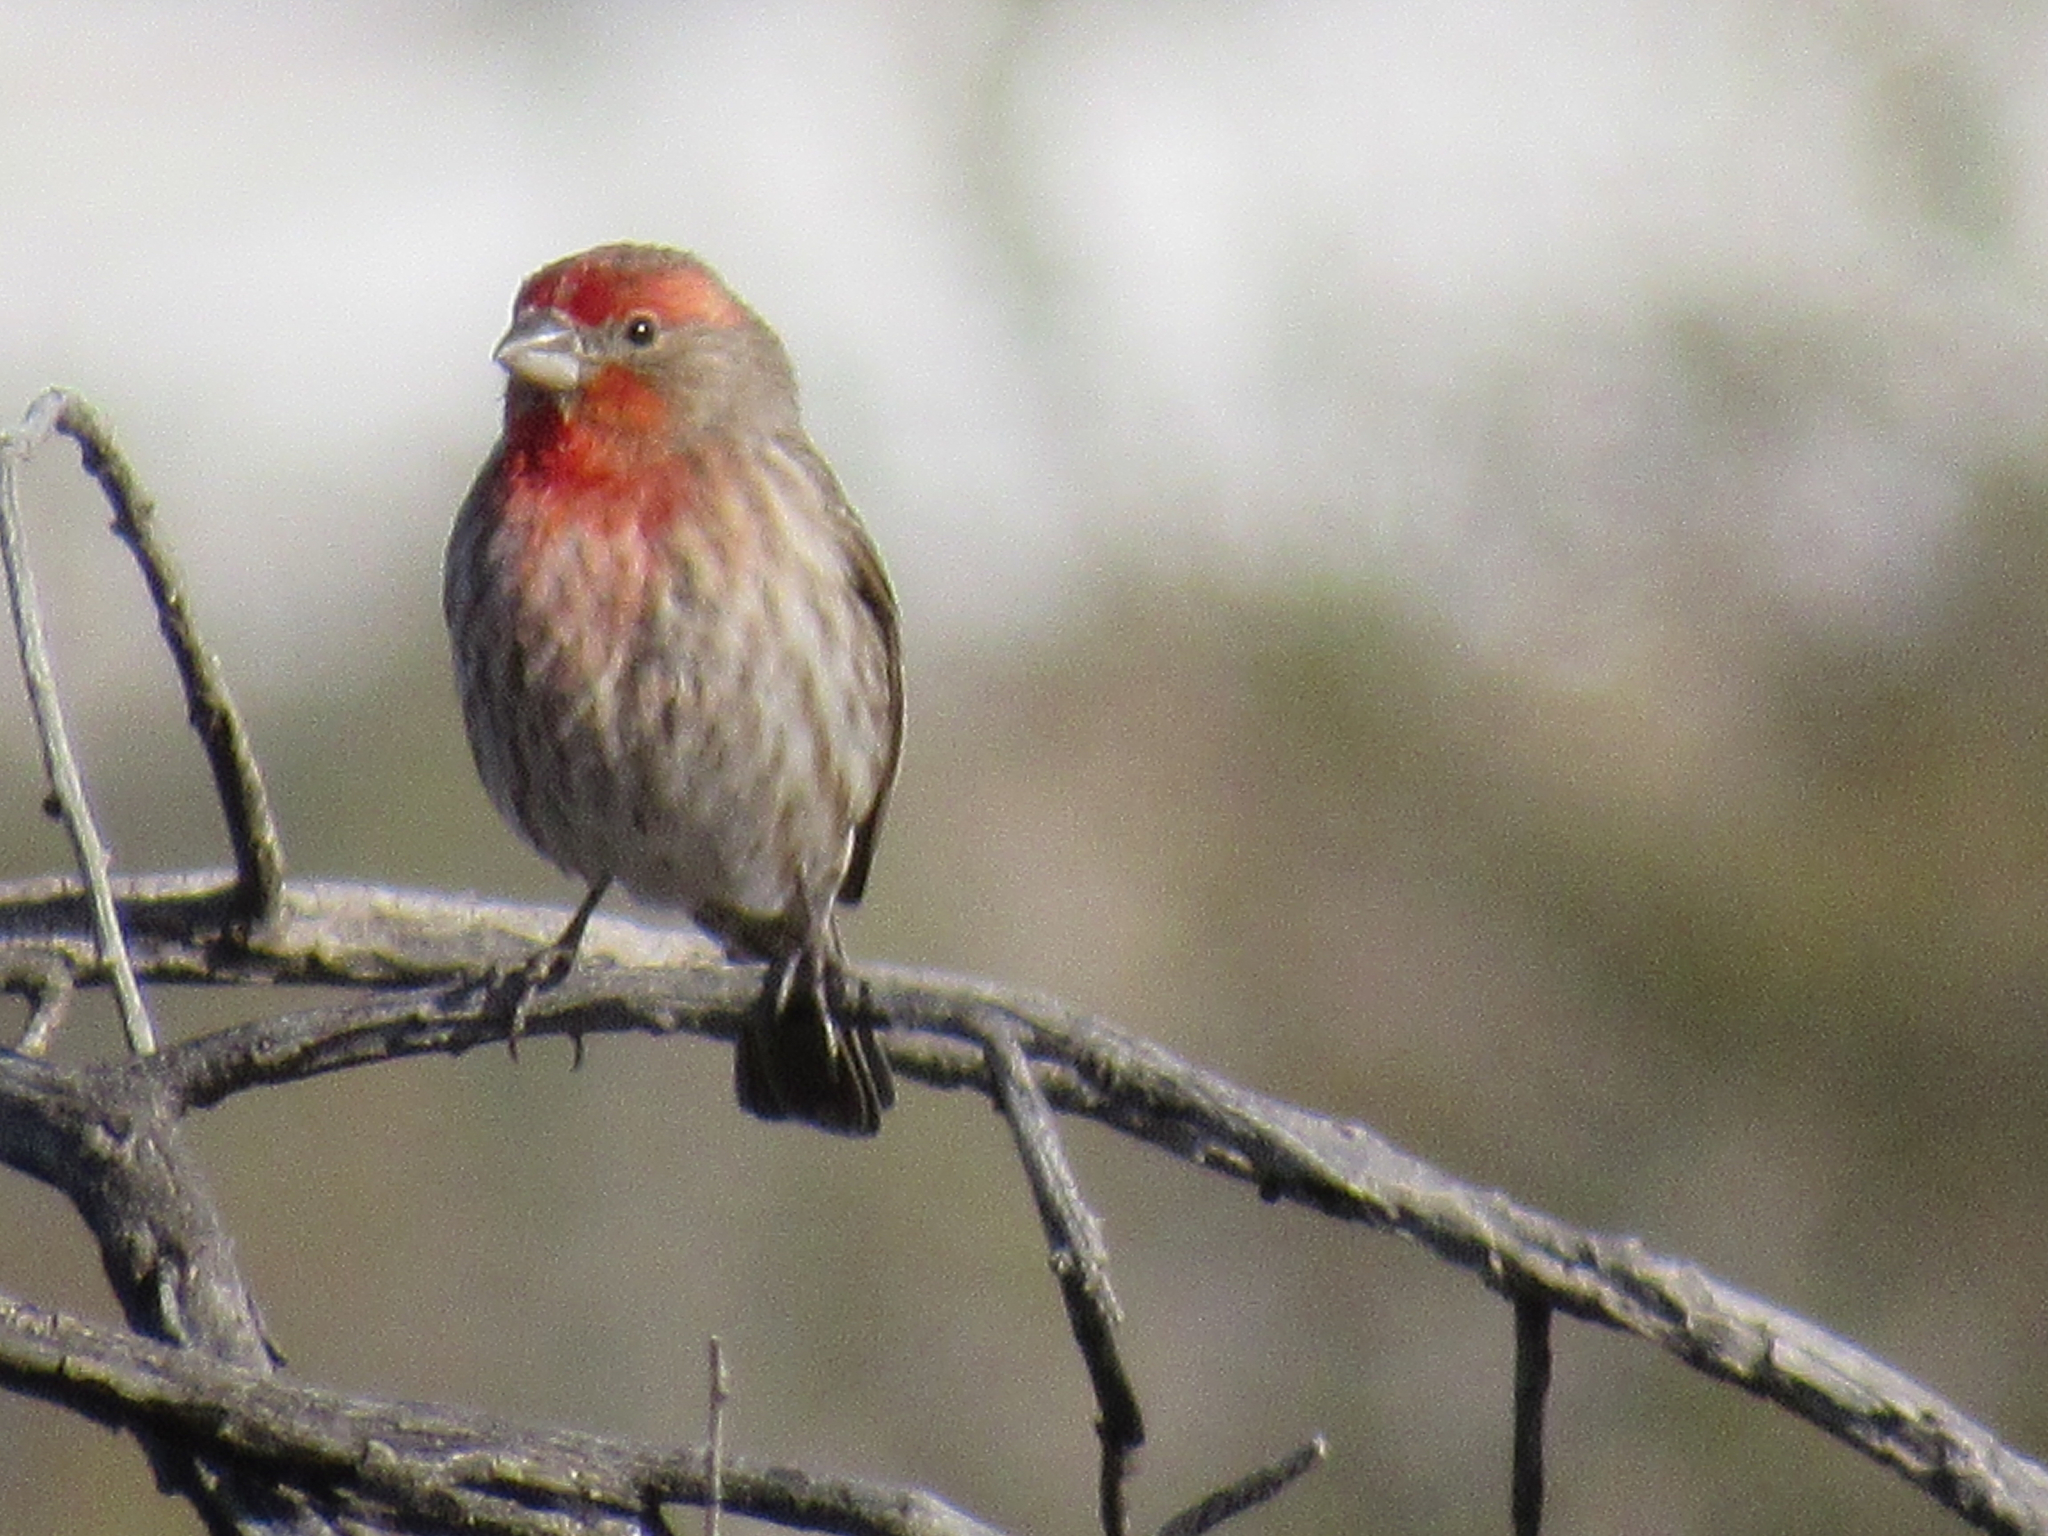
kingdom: Animalia
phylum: Chordata
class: Aves
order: Passeriformes
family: Fringillidae
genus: Haemorhous
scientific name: Haemorhous mexicanus
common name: House finch
